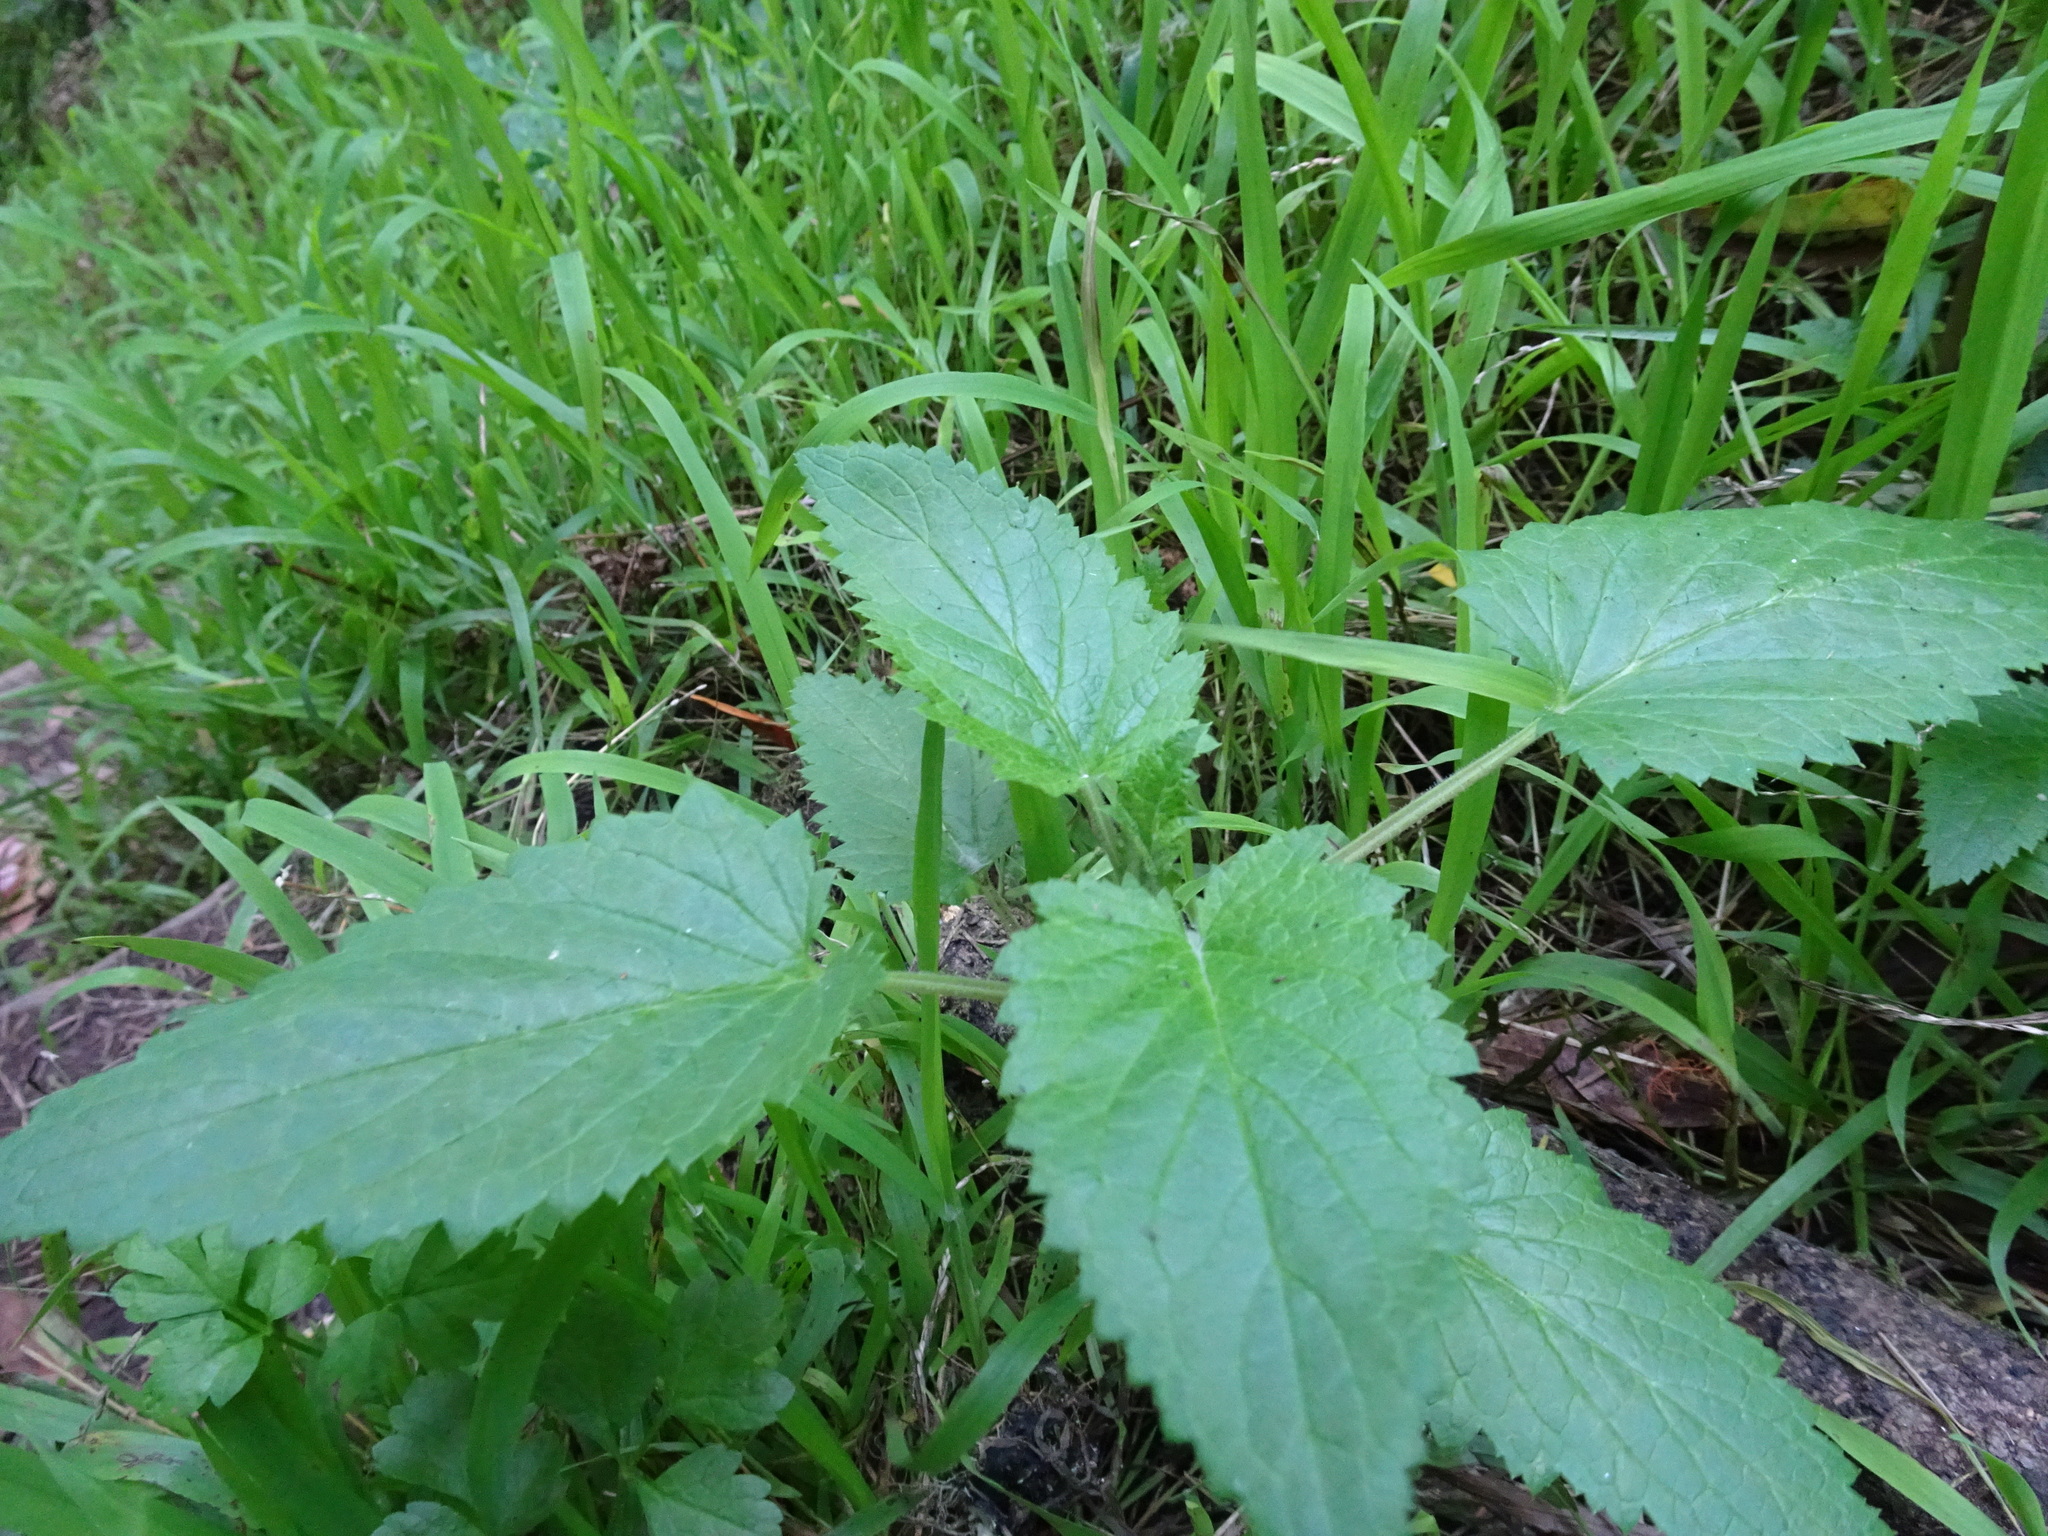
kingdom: Plantae
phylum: Tracheophyta
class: Magnoliopsida
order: Lamiales
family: Scrophulariaceae
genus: Scrophularia
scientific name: Scrophularia californica
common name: California figwort
